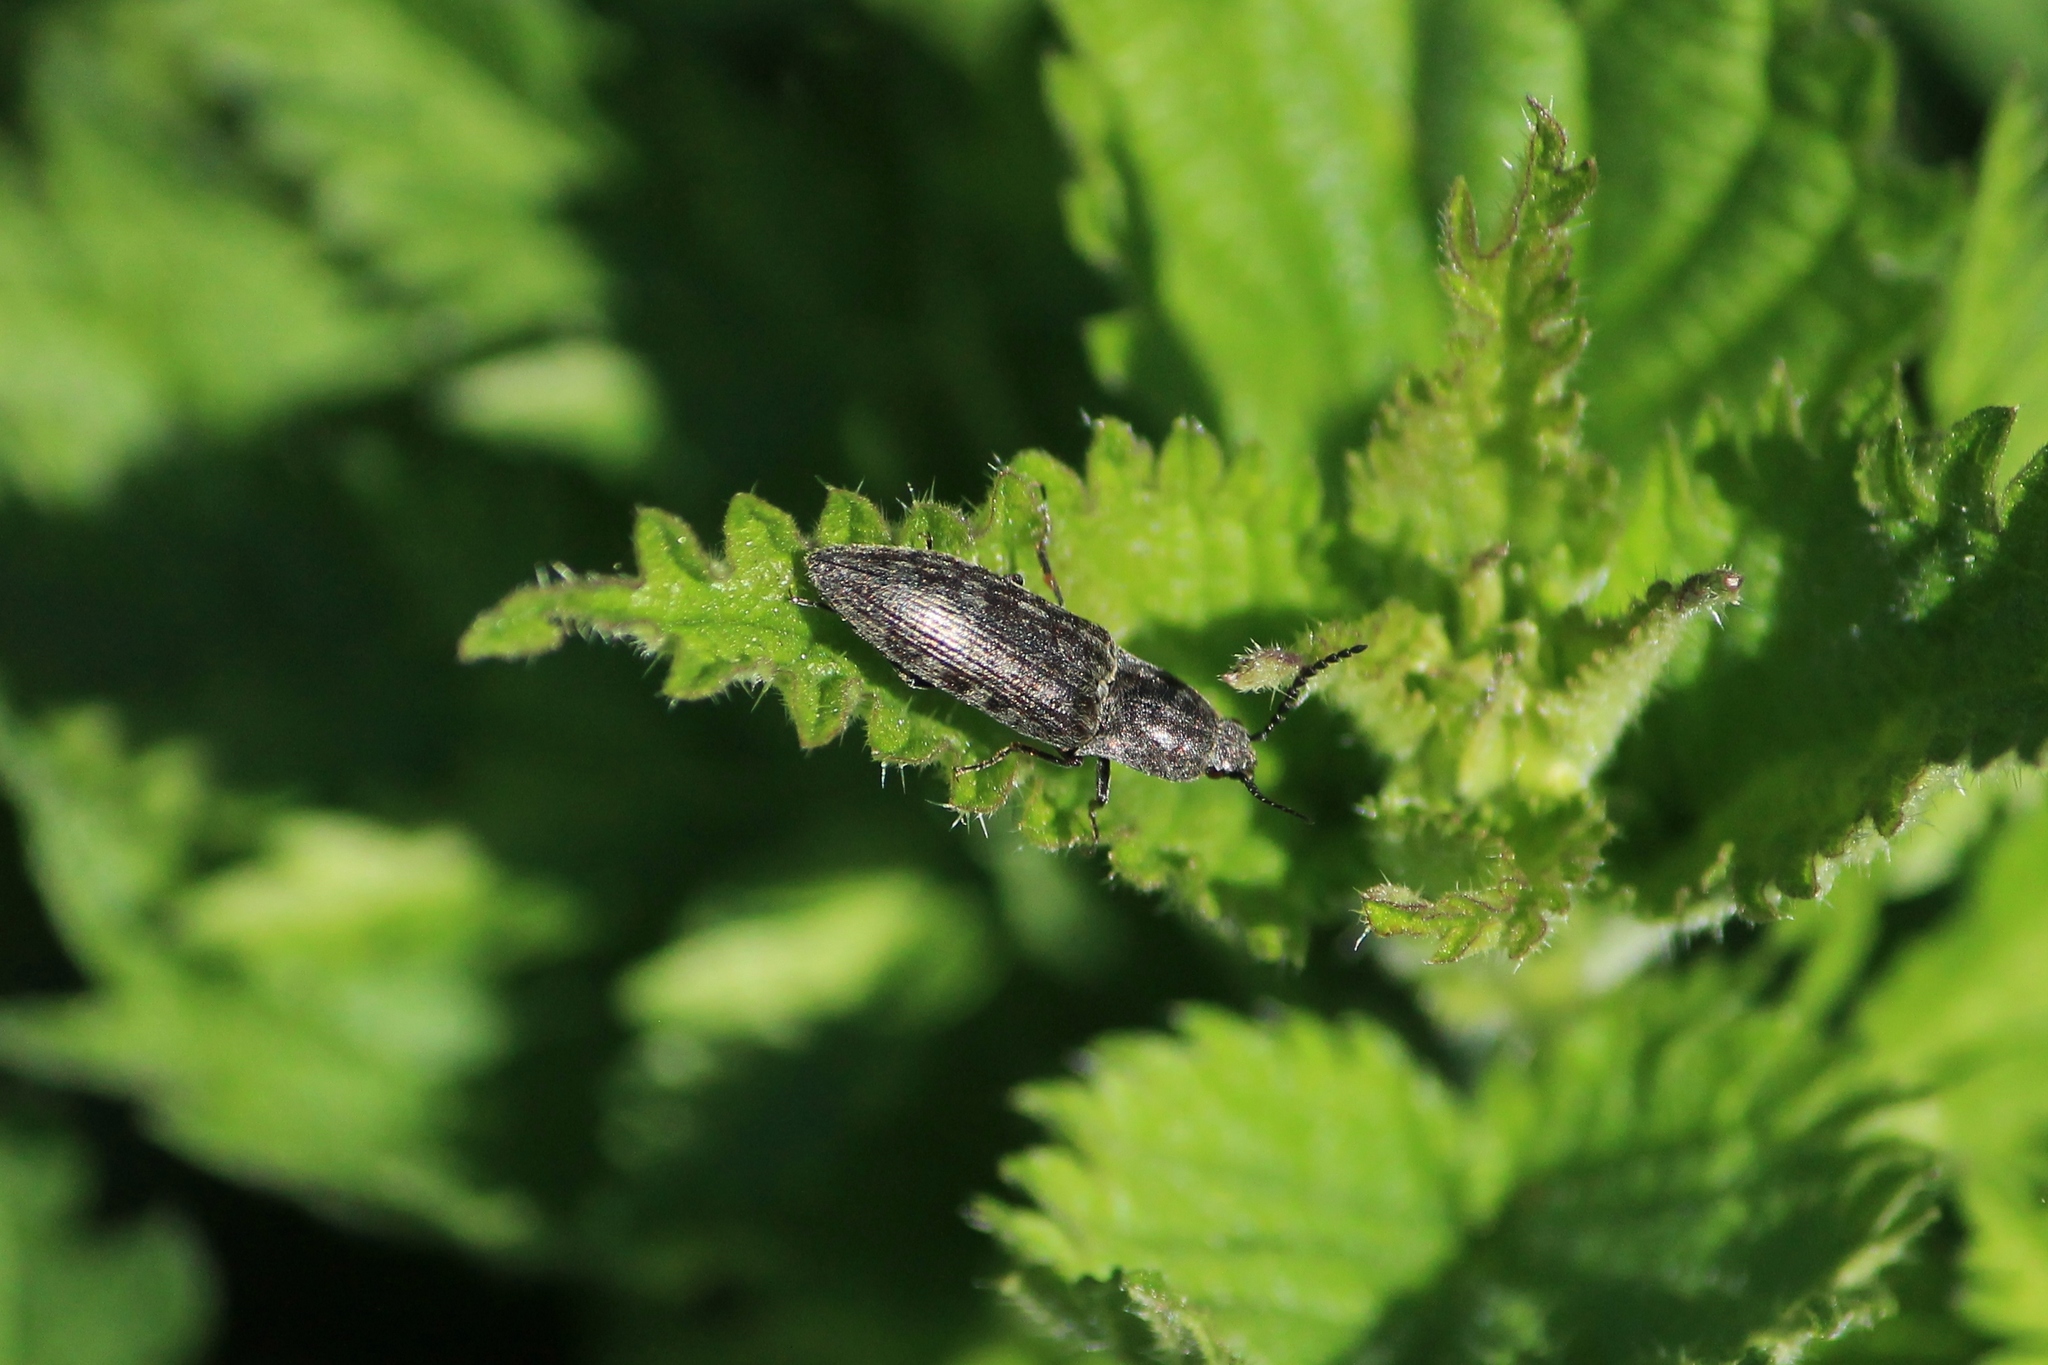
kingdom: Animalia
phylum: Arthropoda
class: Insecta
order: Coleoptera
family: Elateridae
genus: Actenicerus
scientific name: Actenicerus sjaelandicus
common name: Marsh click beetle
